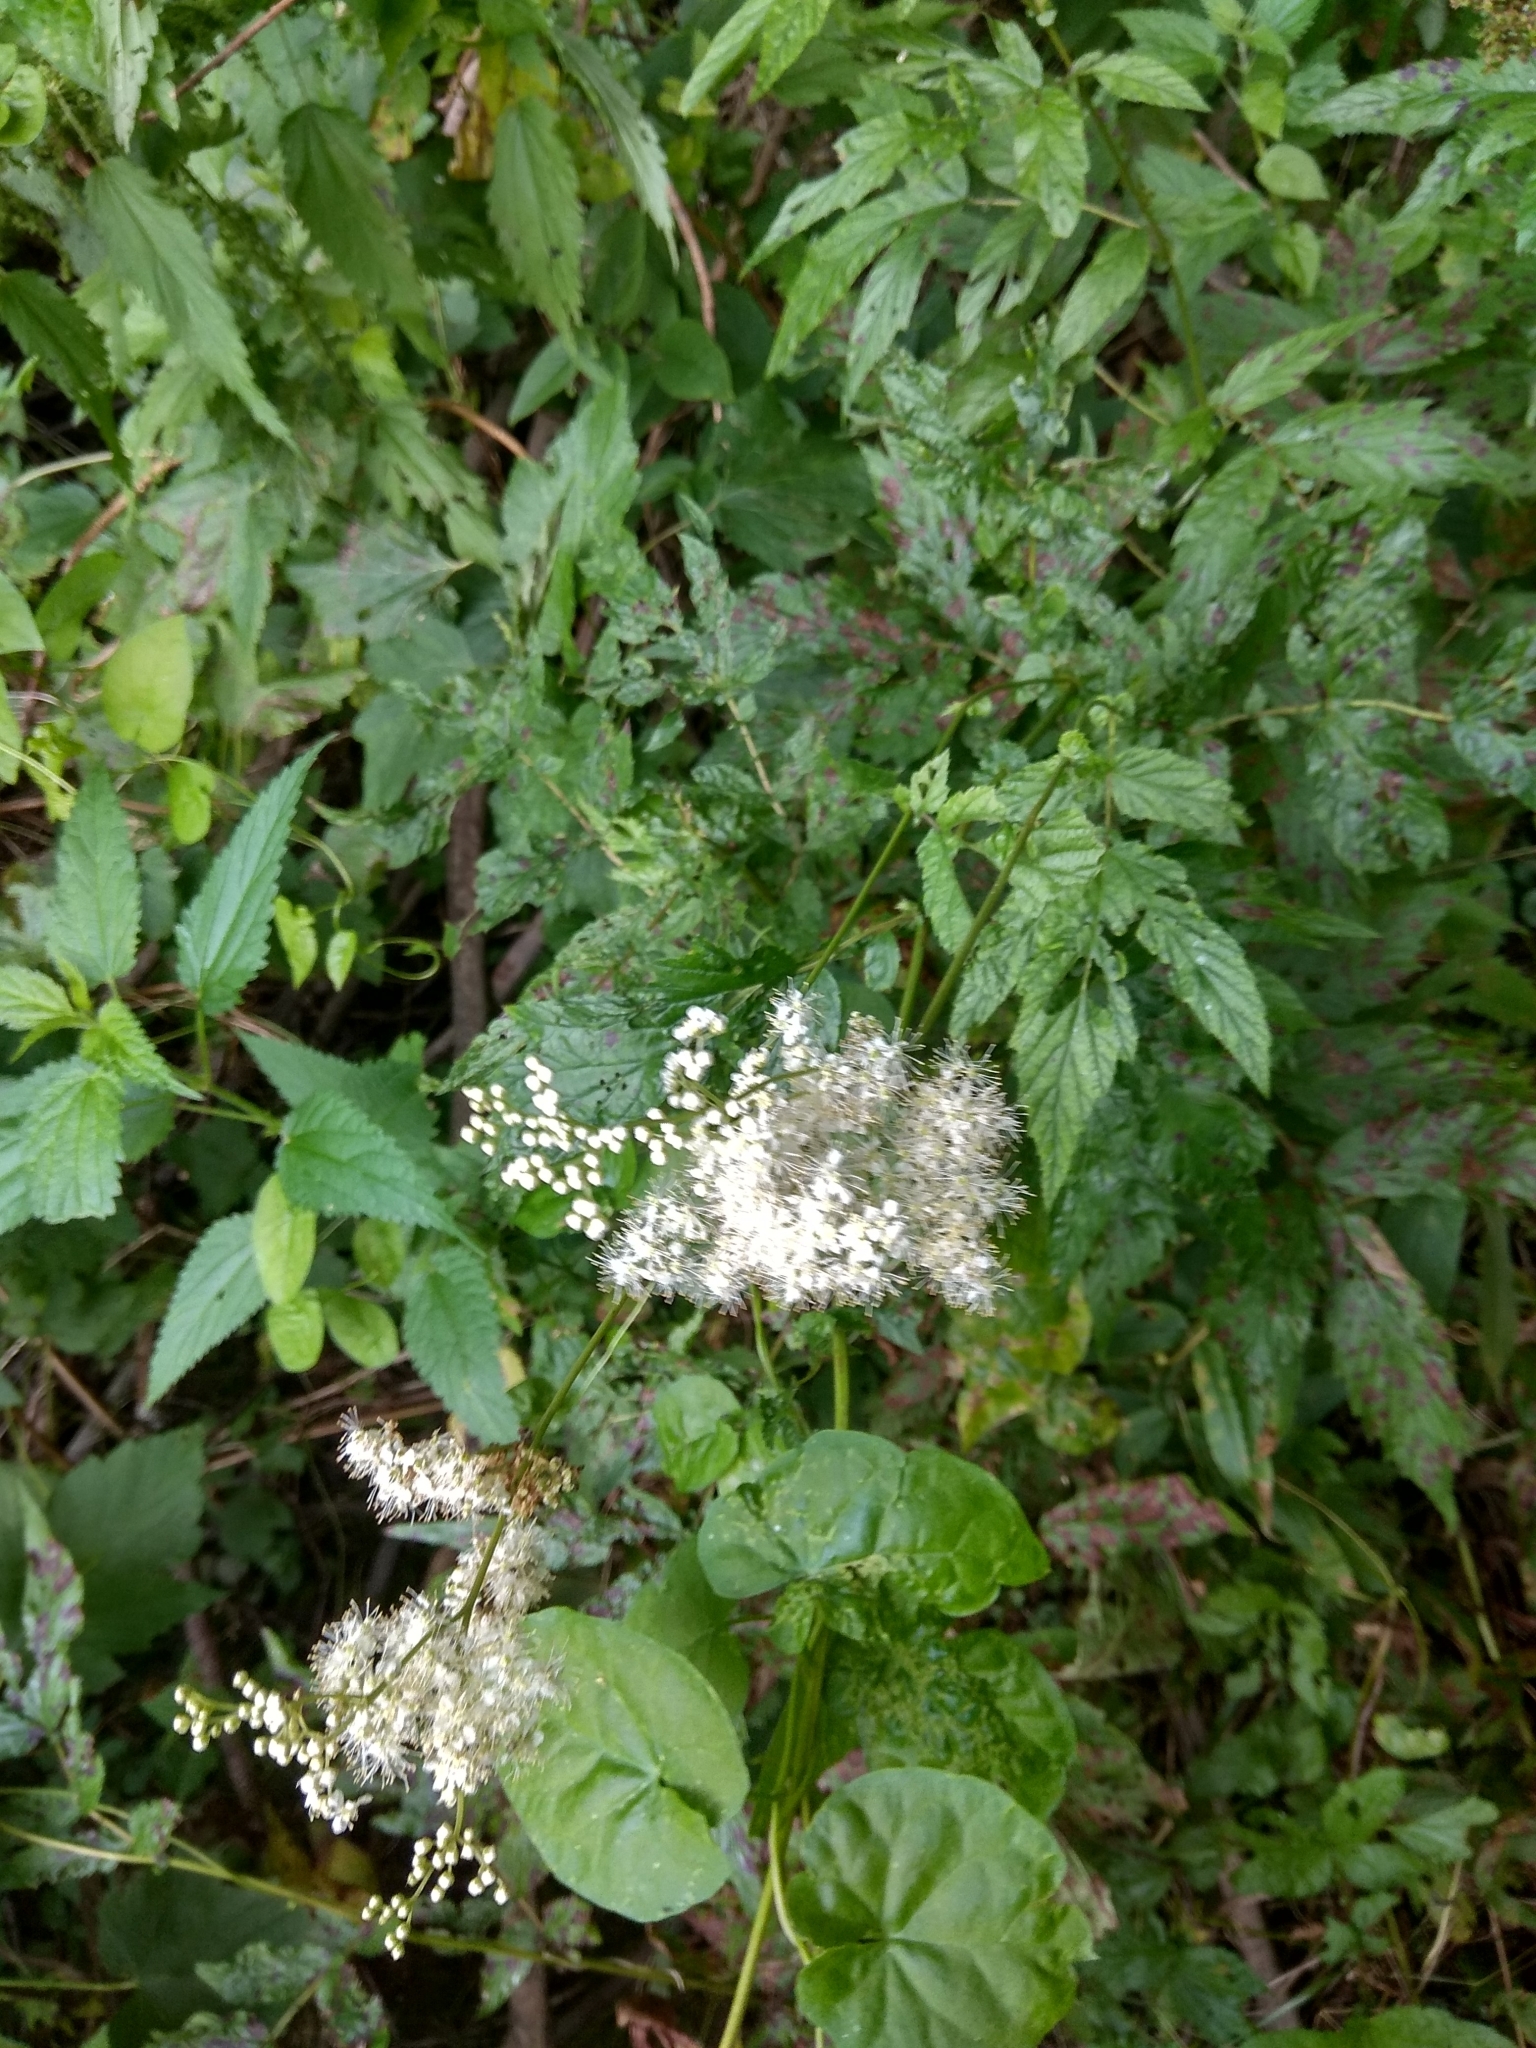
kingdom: Plantae
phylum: Tracheophyta
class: Magnoliopsida
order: Rosales
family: Rosaceae
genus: Filipendula
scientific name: Filipendula ulmaria
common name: Meadowsweet
